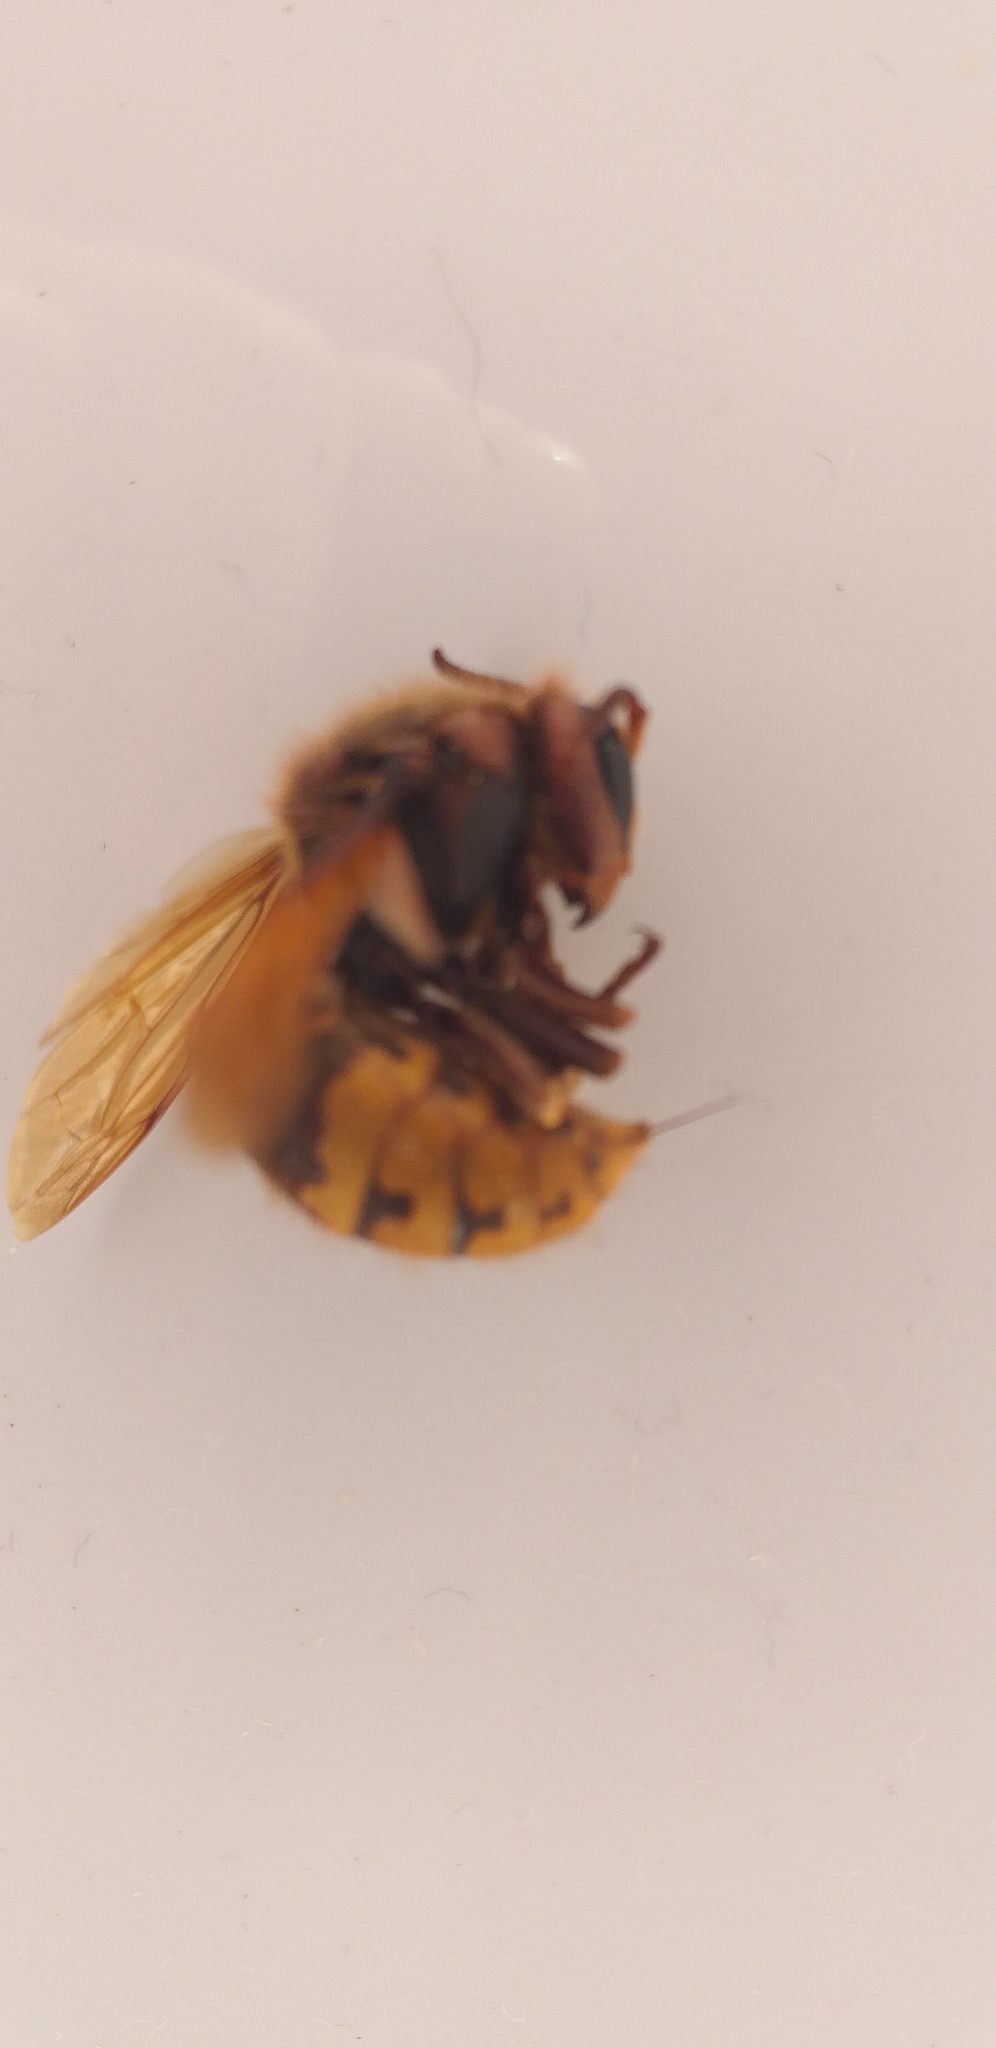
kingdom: Animalia
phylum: Arthropoda
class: Insecta
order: Hymenoptera
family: Vespidae
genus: Vespa
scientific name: Vespa crabro
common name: Hornet
